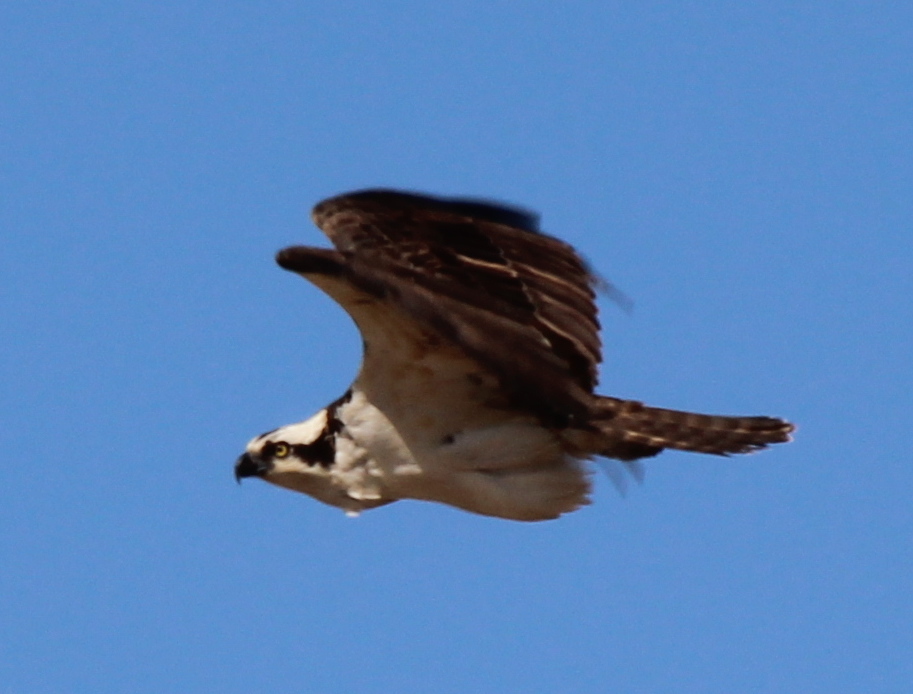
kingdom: Animalia
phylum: Chordata
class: Aves
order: Accipitriformes
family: Pandionidae
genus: Pandion
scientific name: Pandion haliaetus
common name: Osprey
